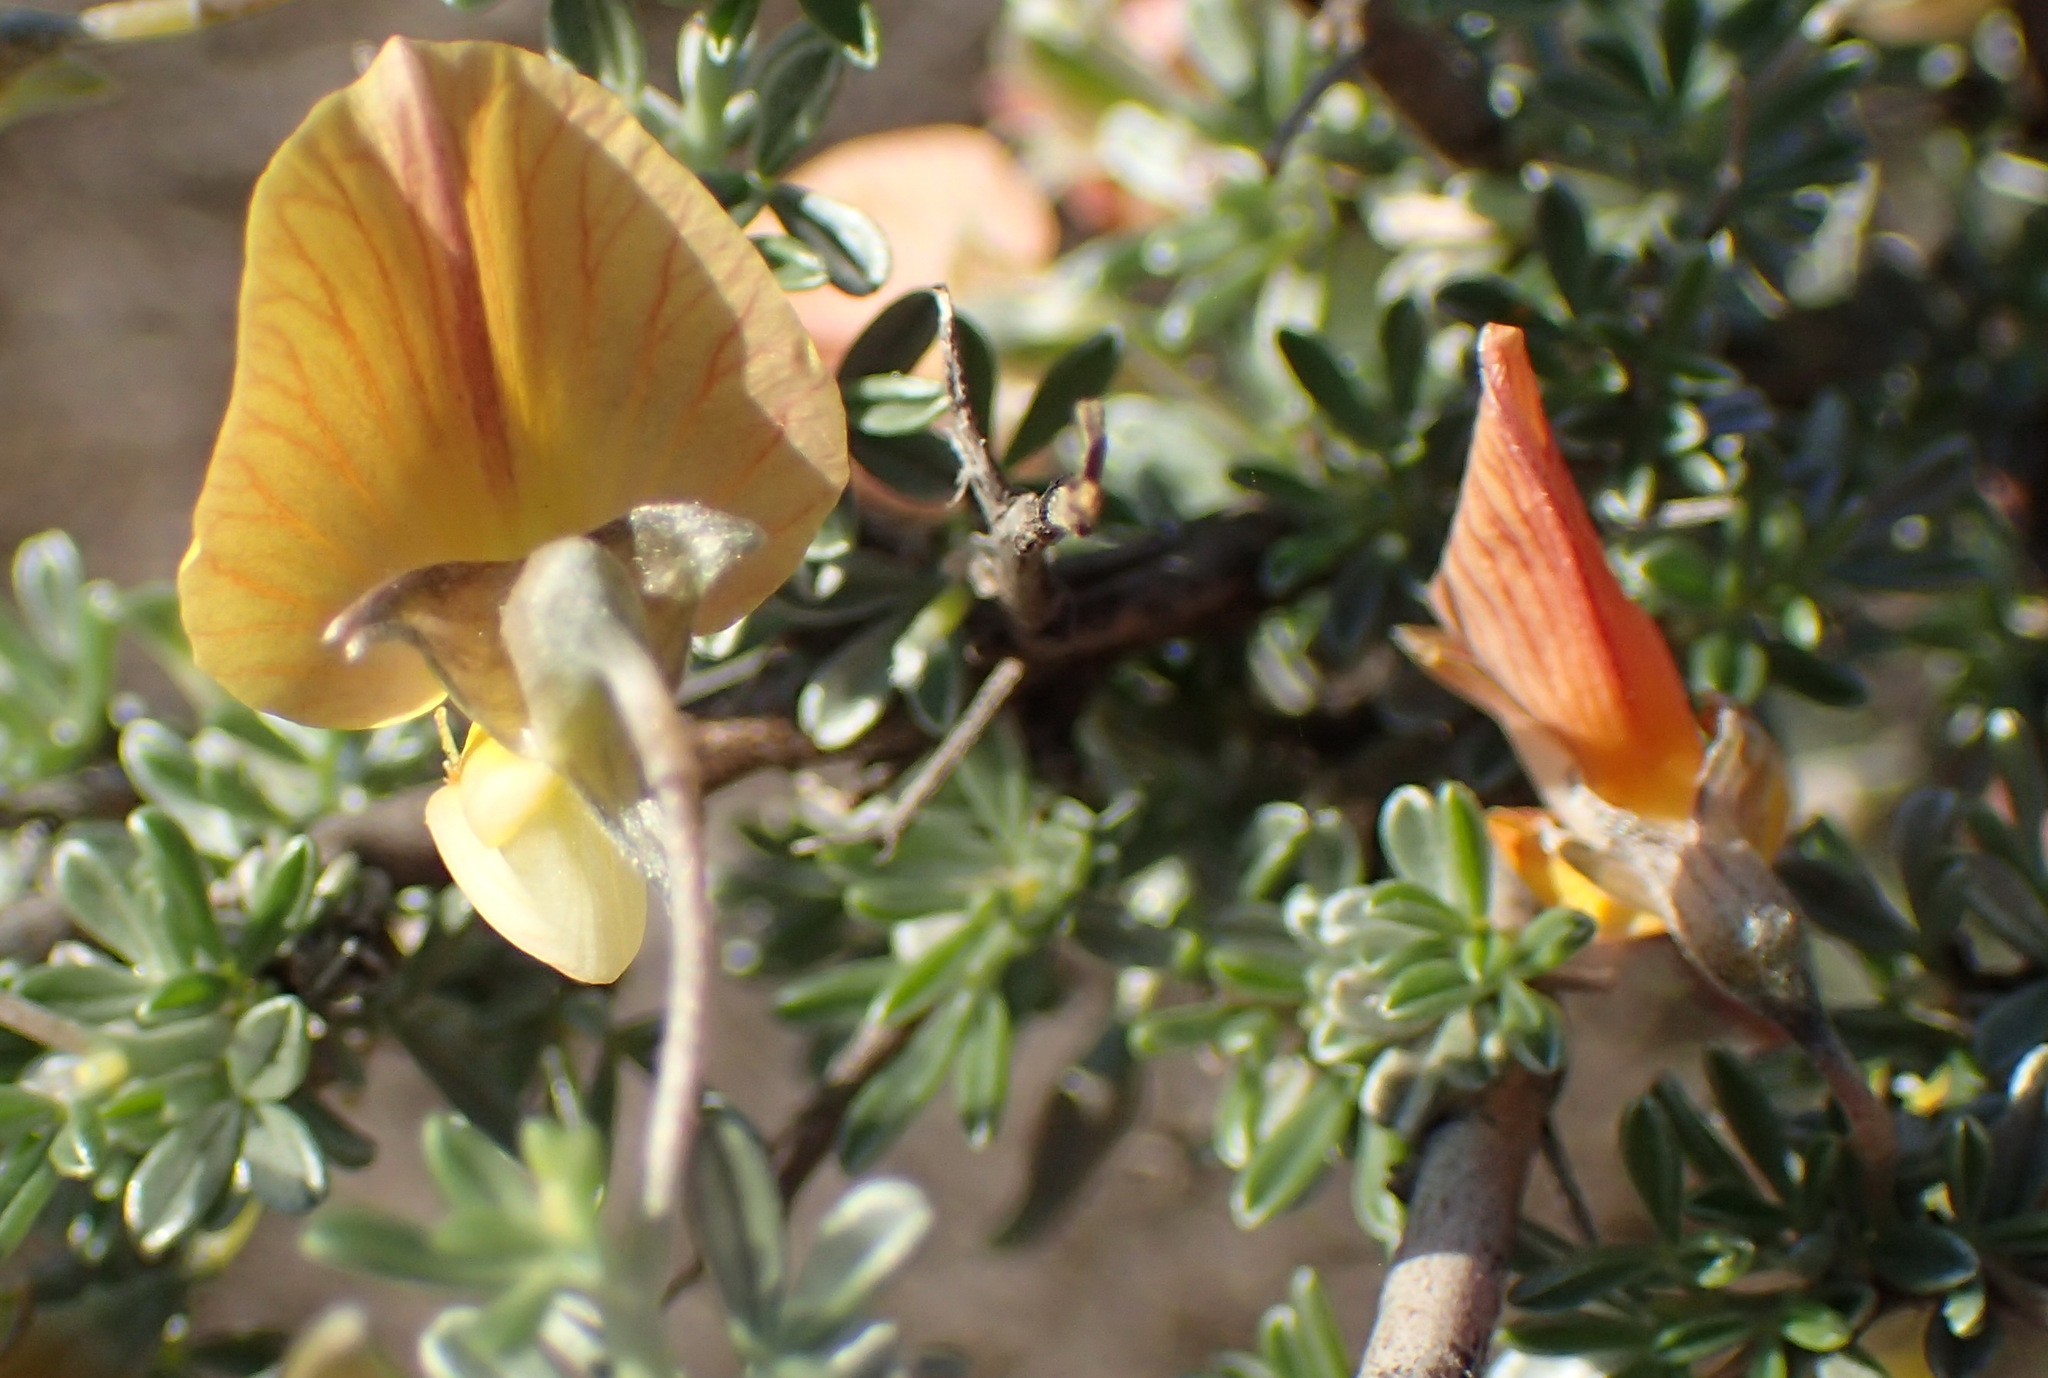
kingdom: Plantae
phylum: Tracheophyta
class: Magnoliopsida
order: Fabales
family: Fabaceae
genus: Lotononis
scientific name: Lotononis dahlgrenii
